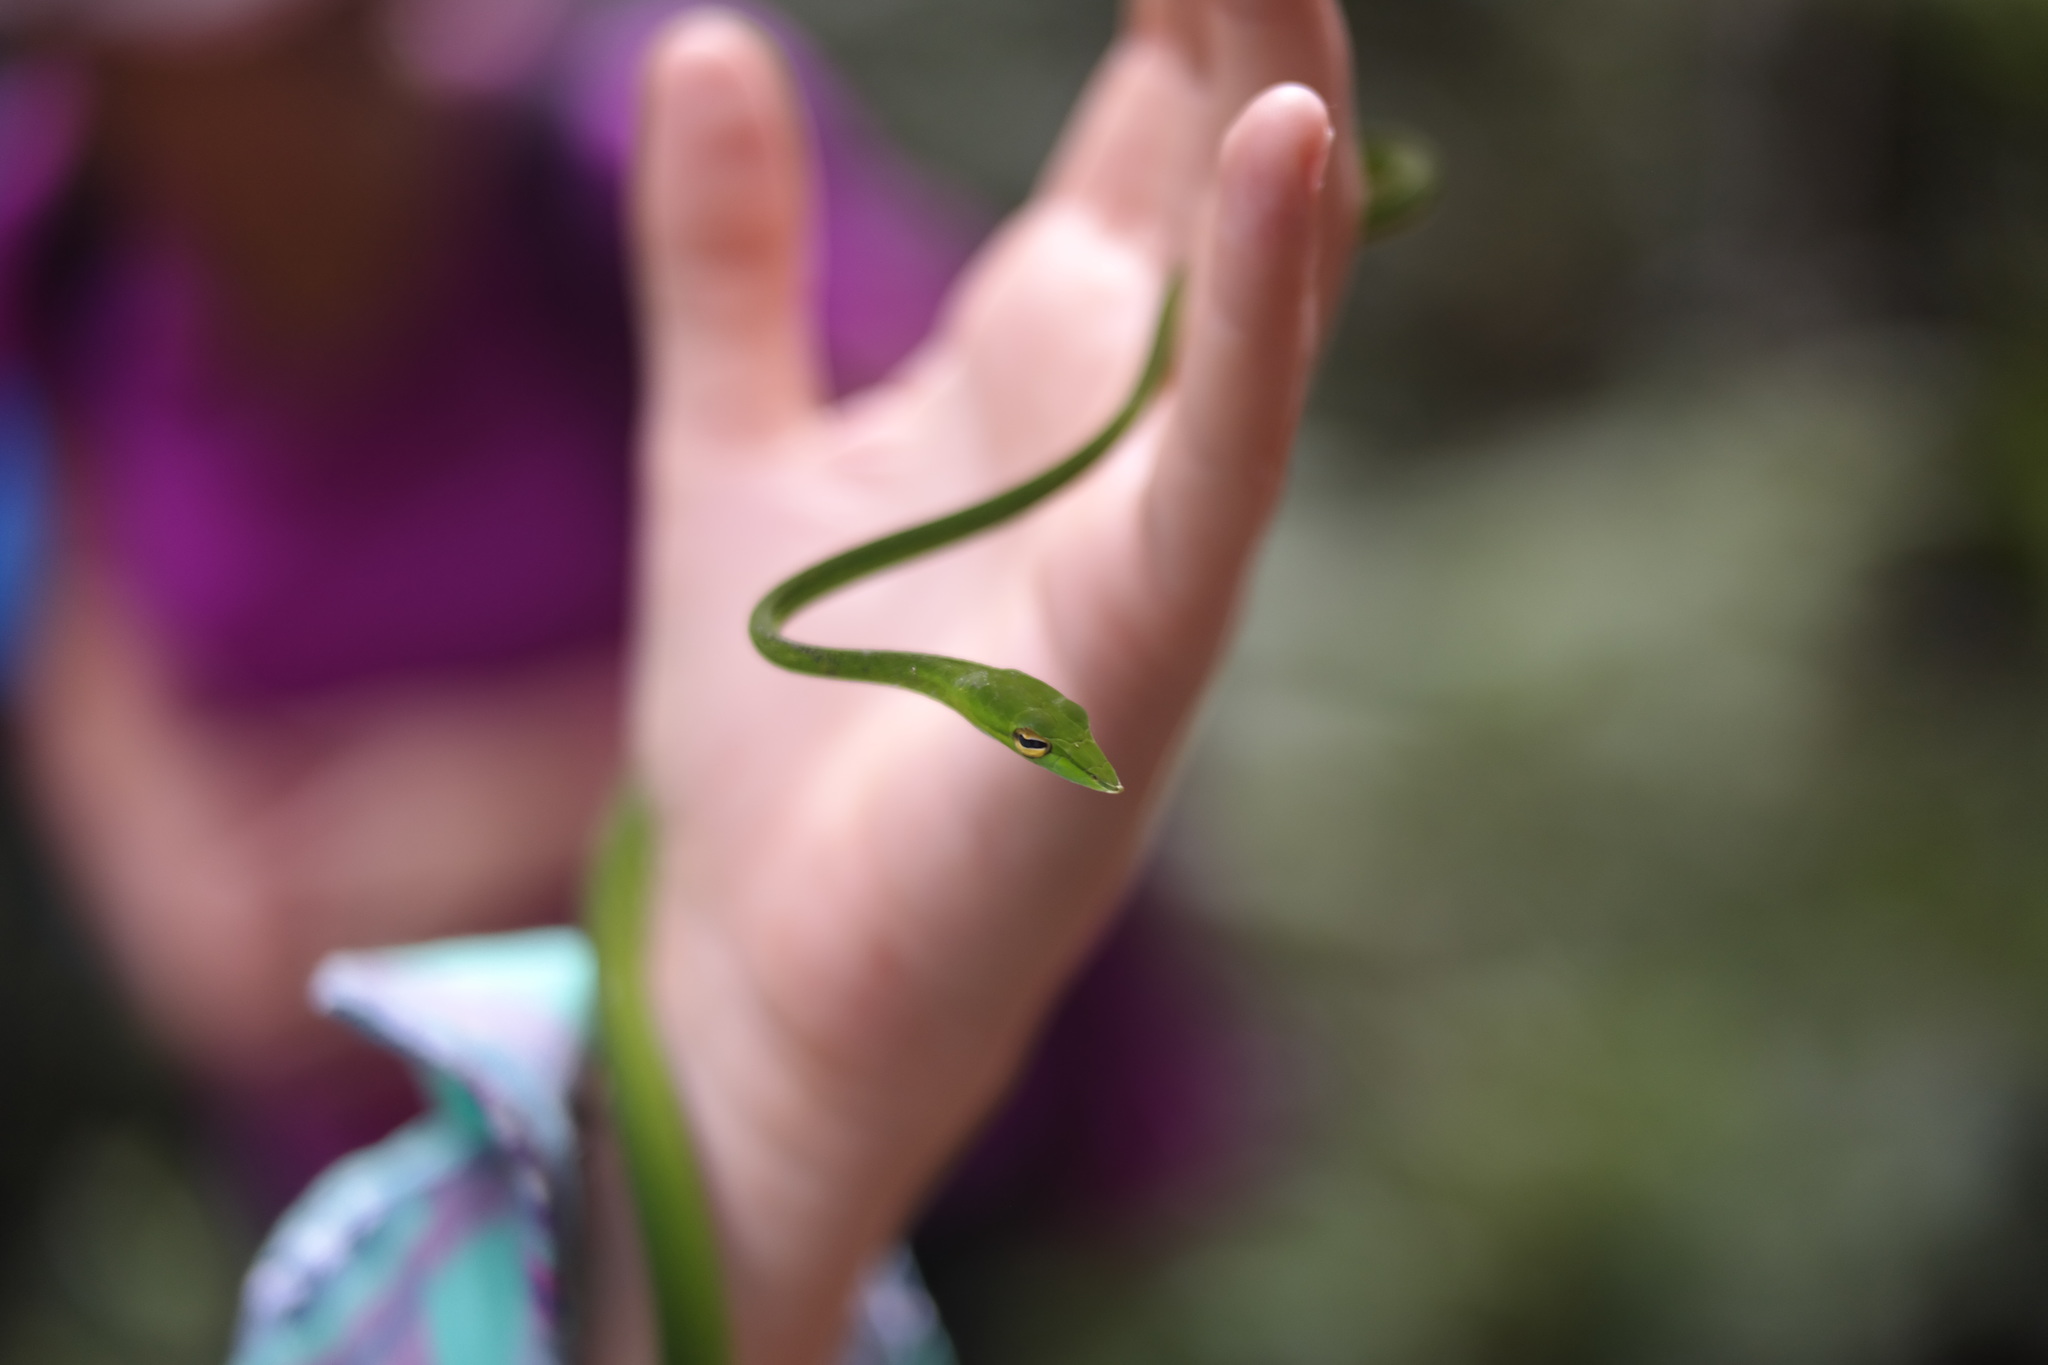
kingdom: Animalia
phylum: Chordata
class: Squamata
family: Colubridae
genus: Ahaetulla
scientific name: Ahaetulla nasuta
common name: Green vine snake
